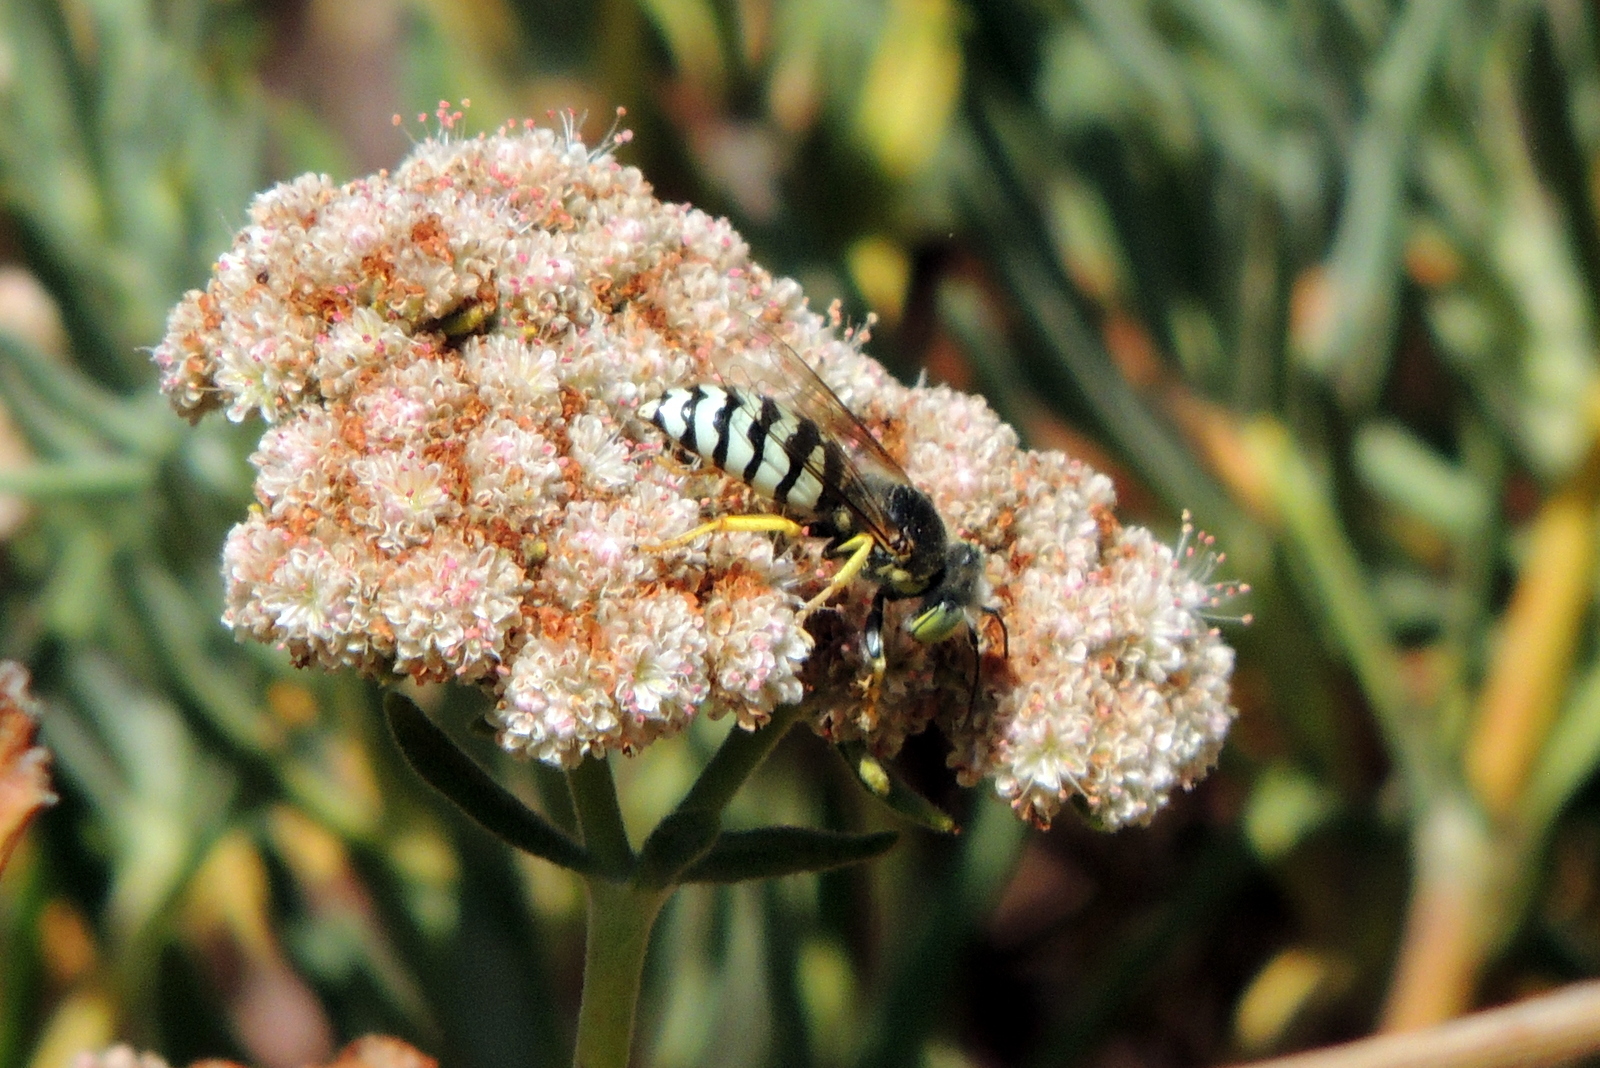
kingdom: Animalia
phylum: Arthropoda
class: Insecta
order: Hymenoptera
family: Crabronidae
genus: Bembix
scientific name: Bembix americana
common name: American sand wasp
